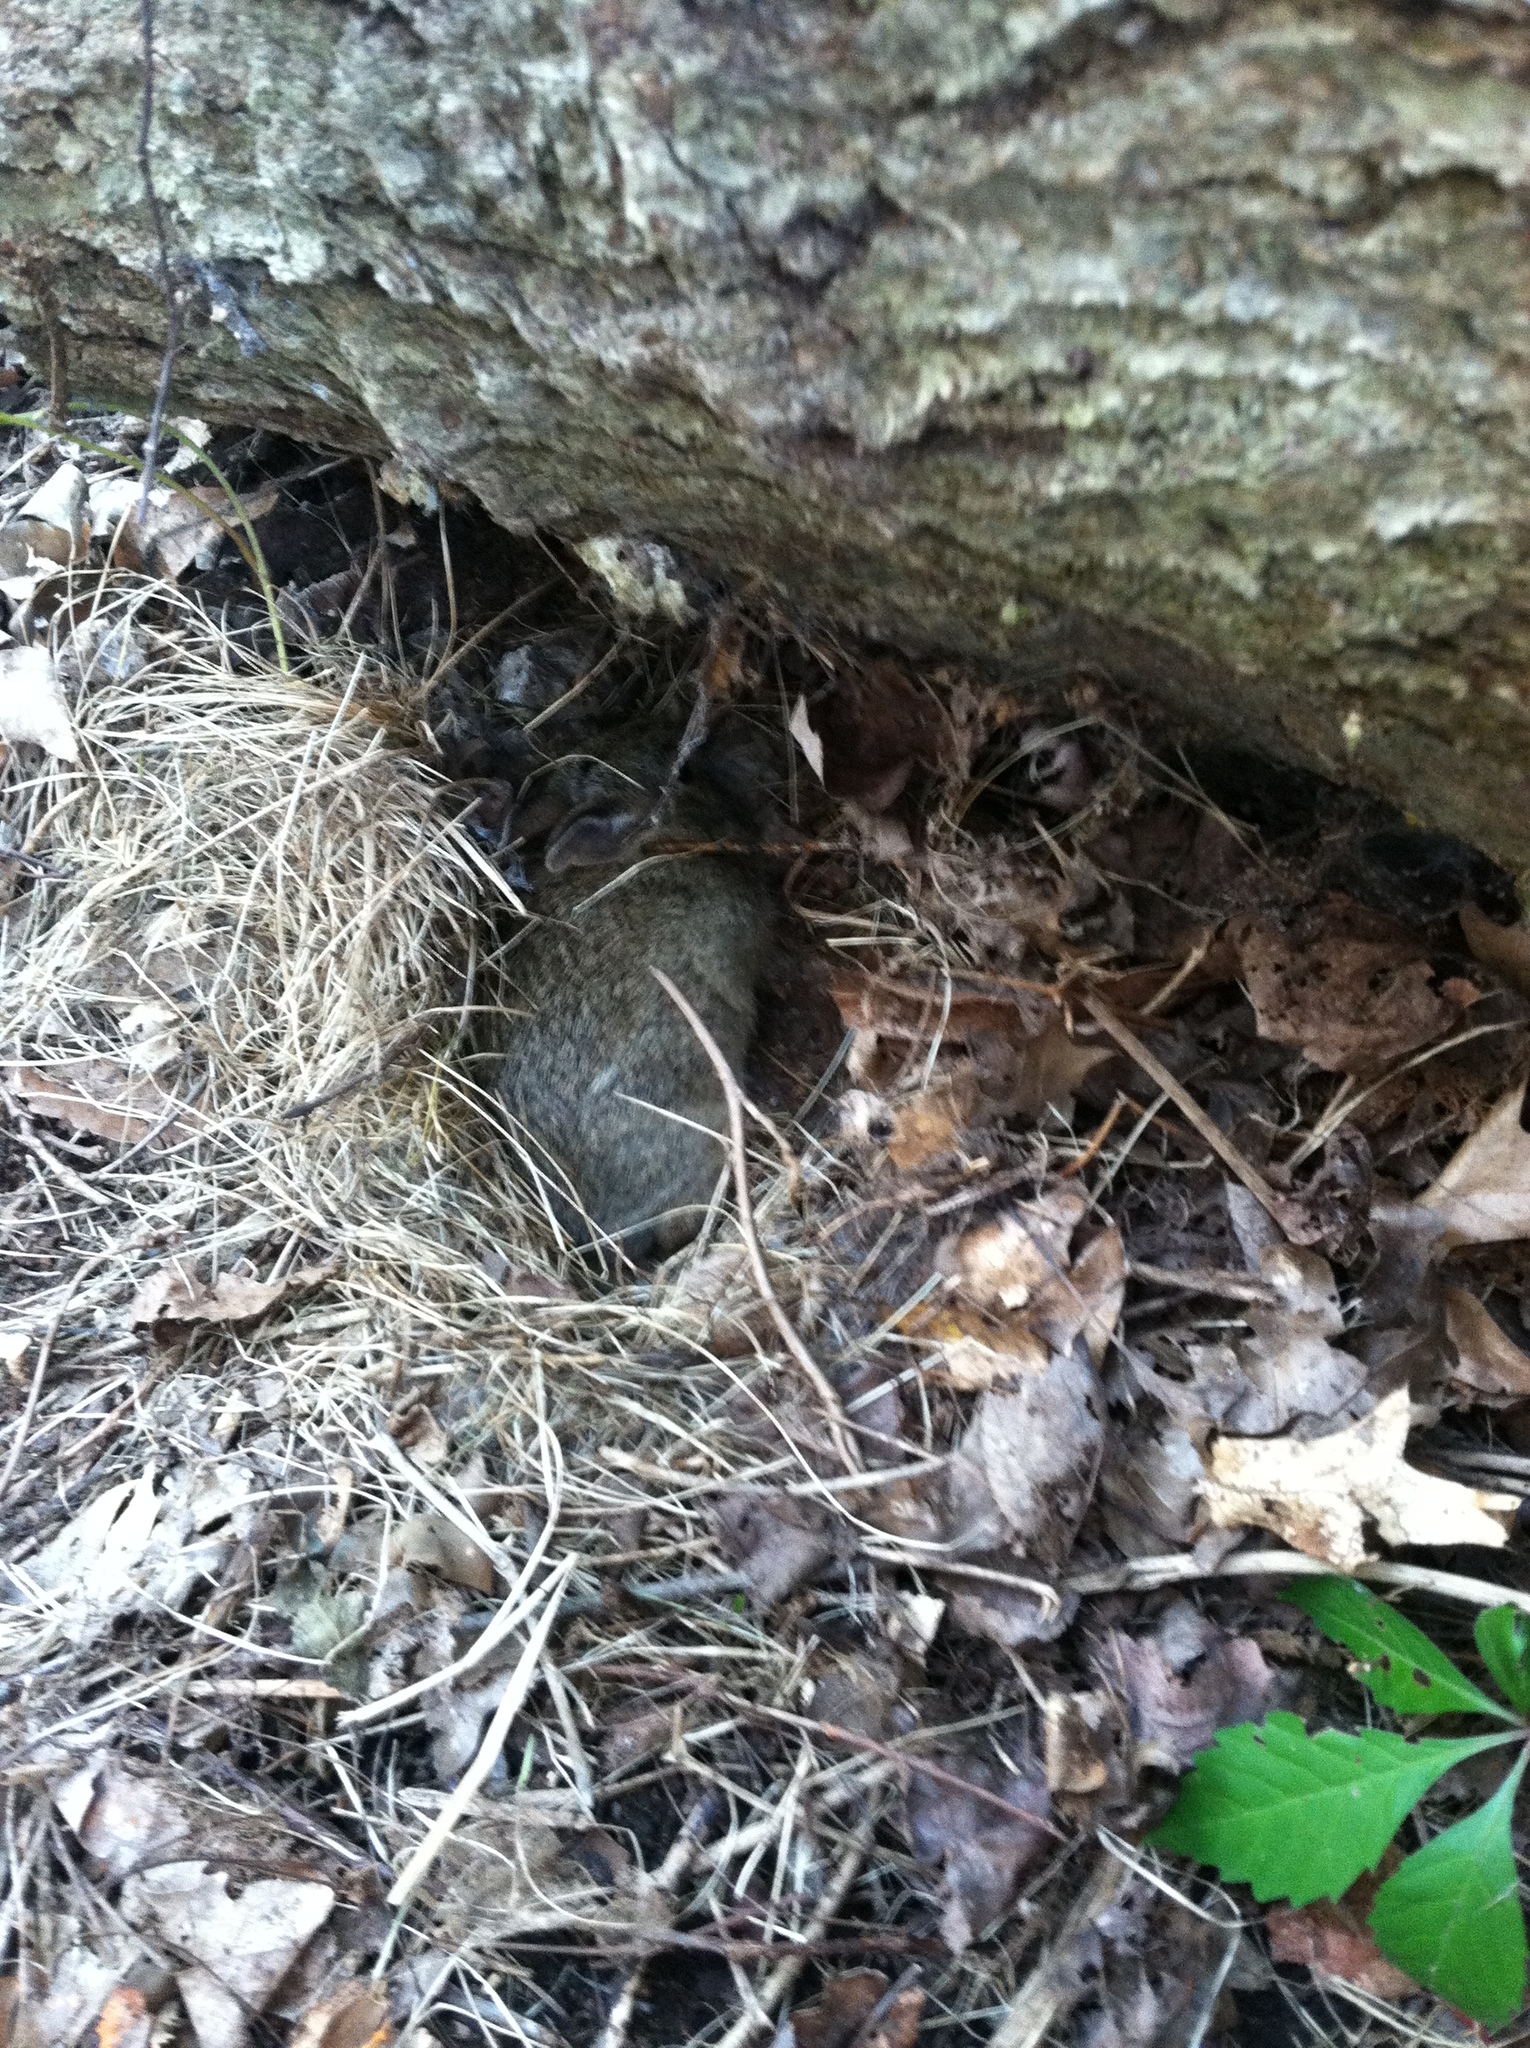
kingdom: Animalia
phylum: Chordata
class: Mammalia
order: Lagomorpha
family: Leporidae
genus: Sylvilagus
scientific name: Sylvilagus floridanus
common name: Eastern cottontail
